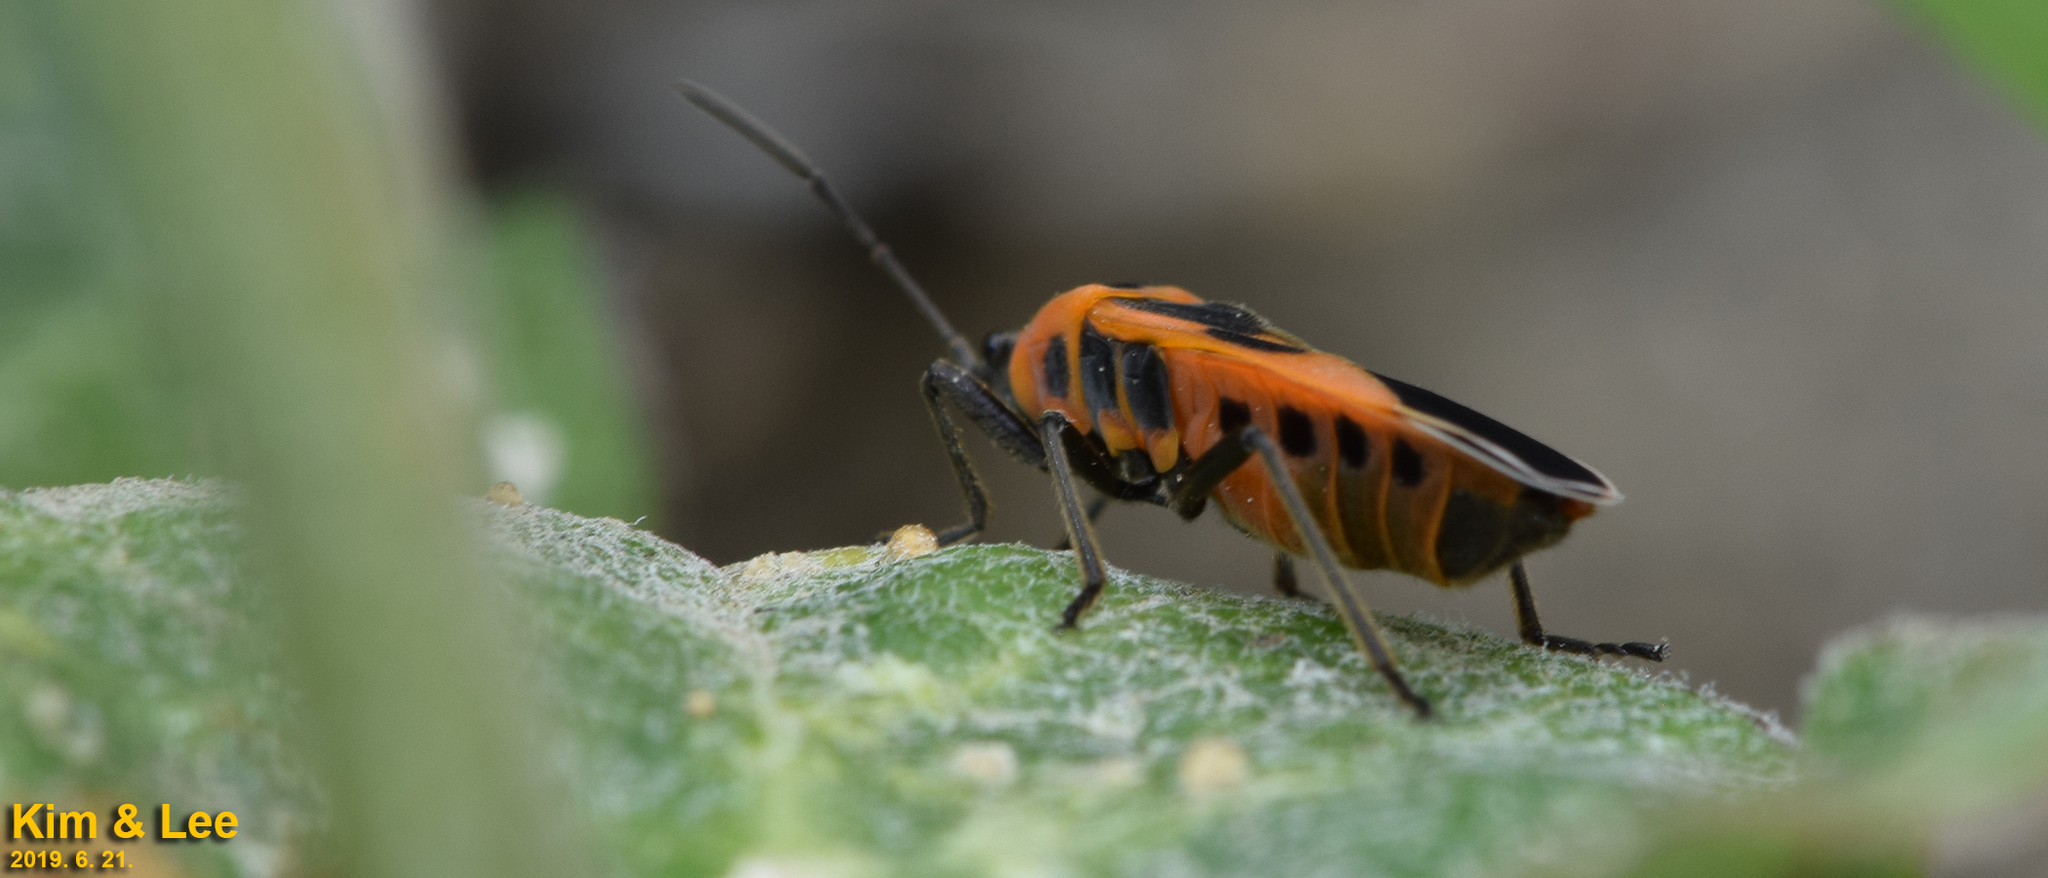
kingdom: Animalia
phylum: Arthropoda
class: Insecta
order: Hemiptera
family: Lygaeidae
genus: Tropidothorax
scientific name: Tropidothorax cruciger
